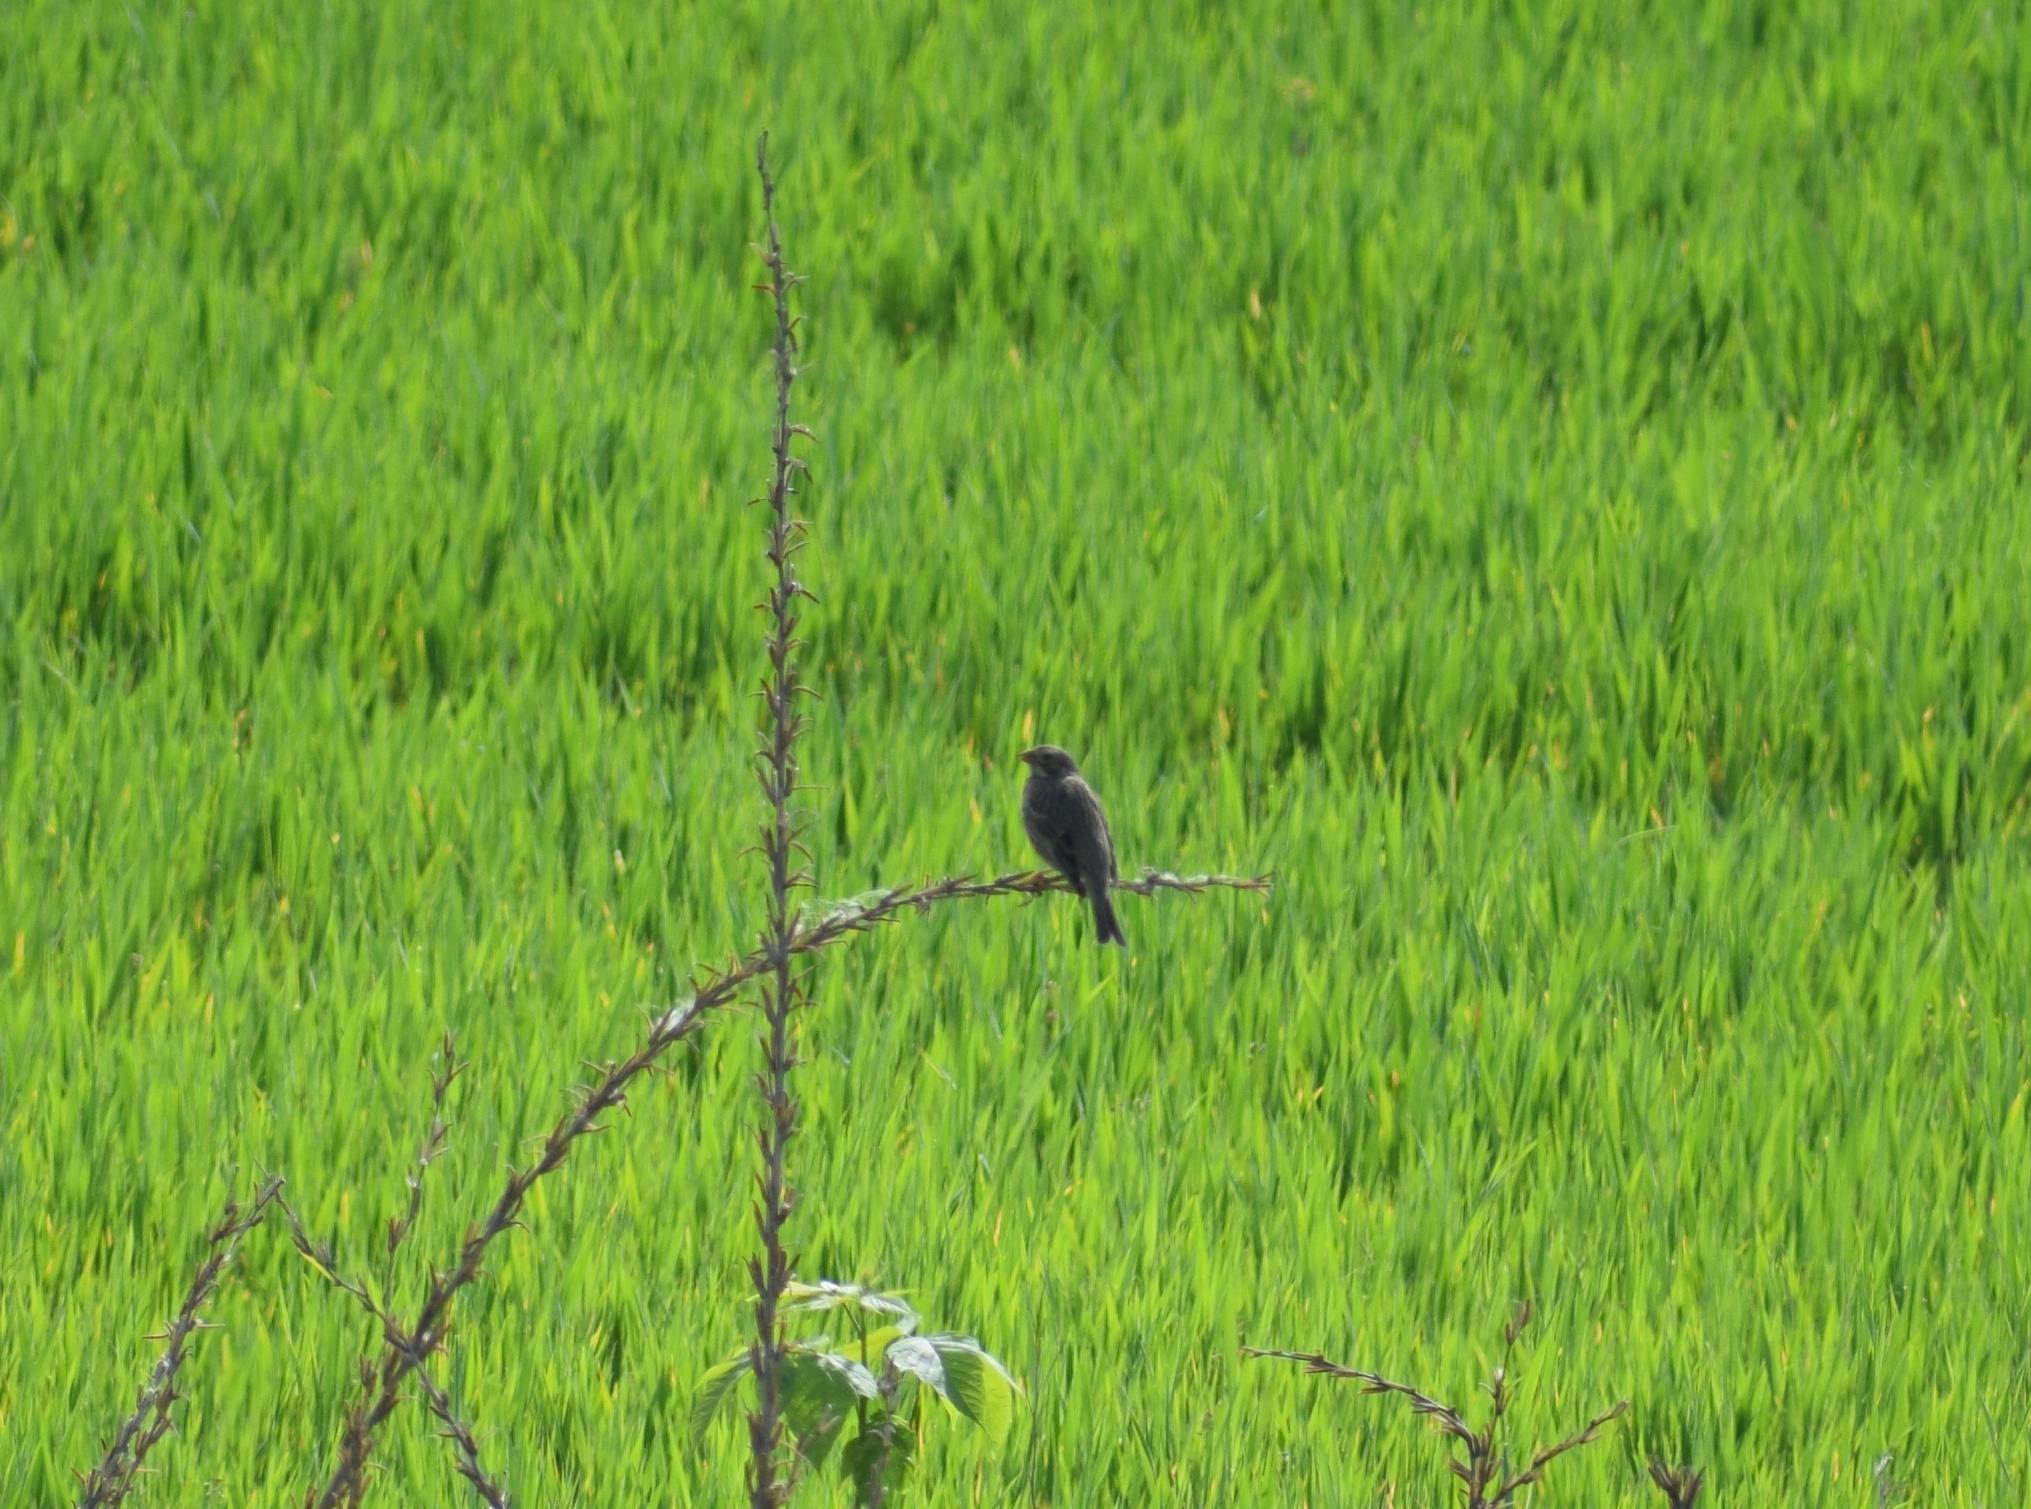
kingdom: Animalia
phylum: Chordata
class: Aves
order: Passeriformes
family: Emberizidae
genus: Emberiza
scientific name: Emberiza calandra
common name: Corn bunting
